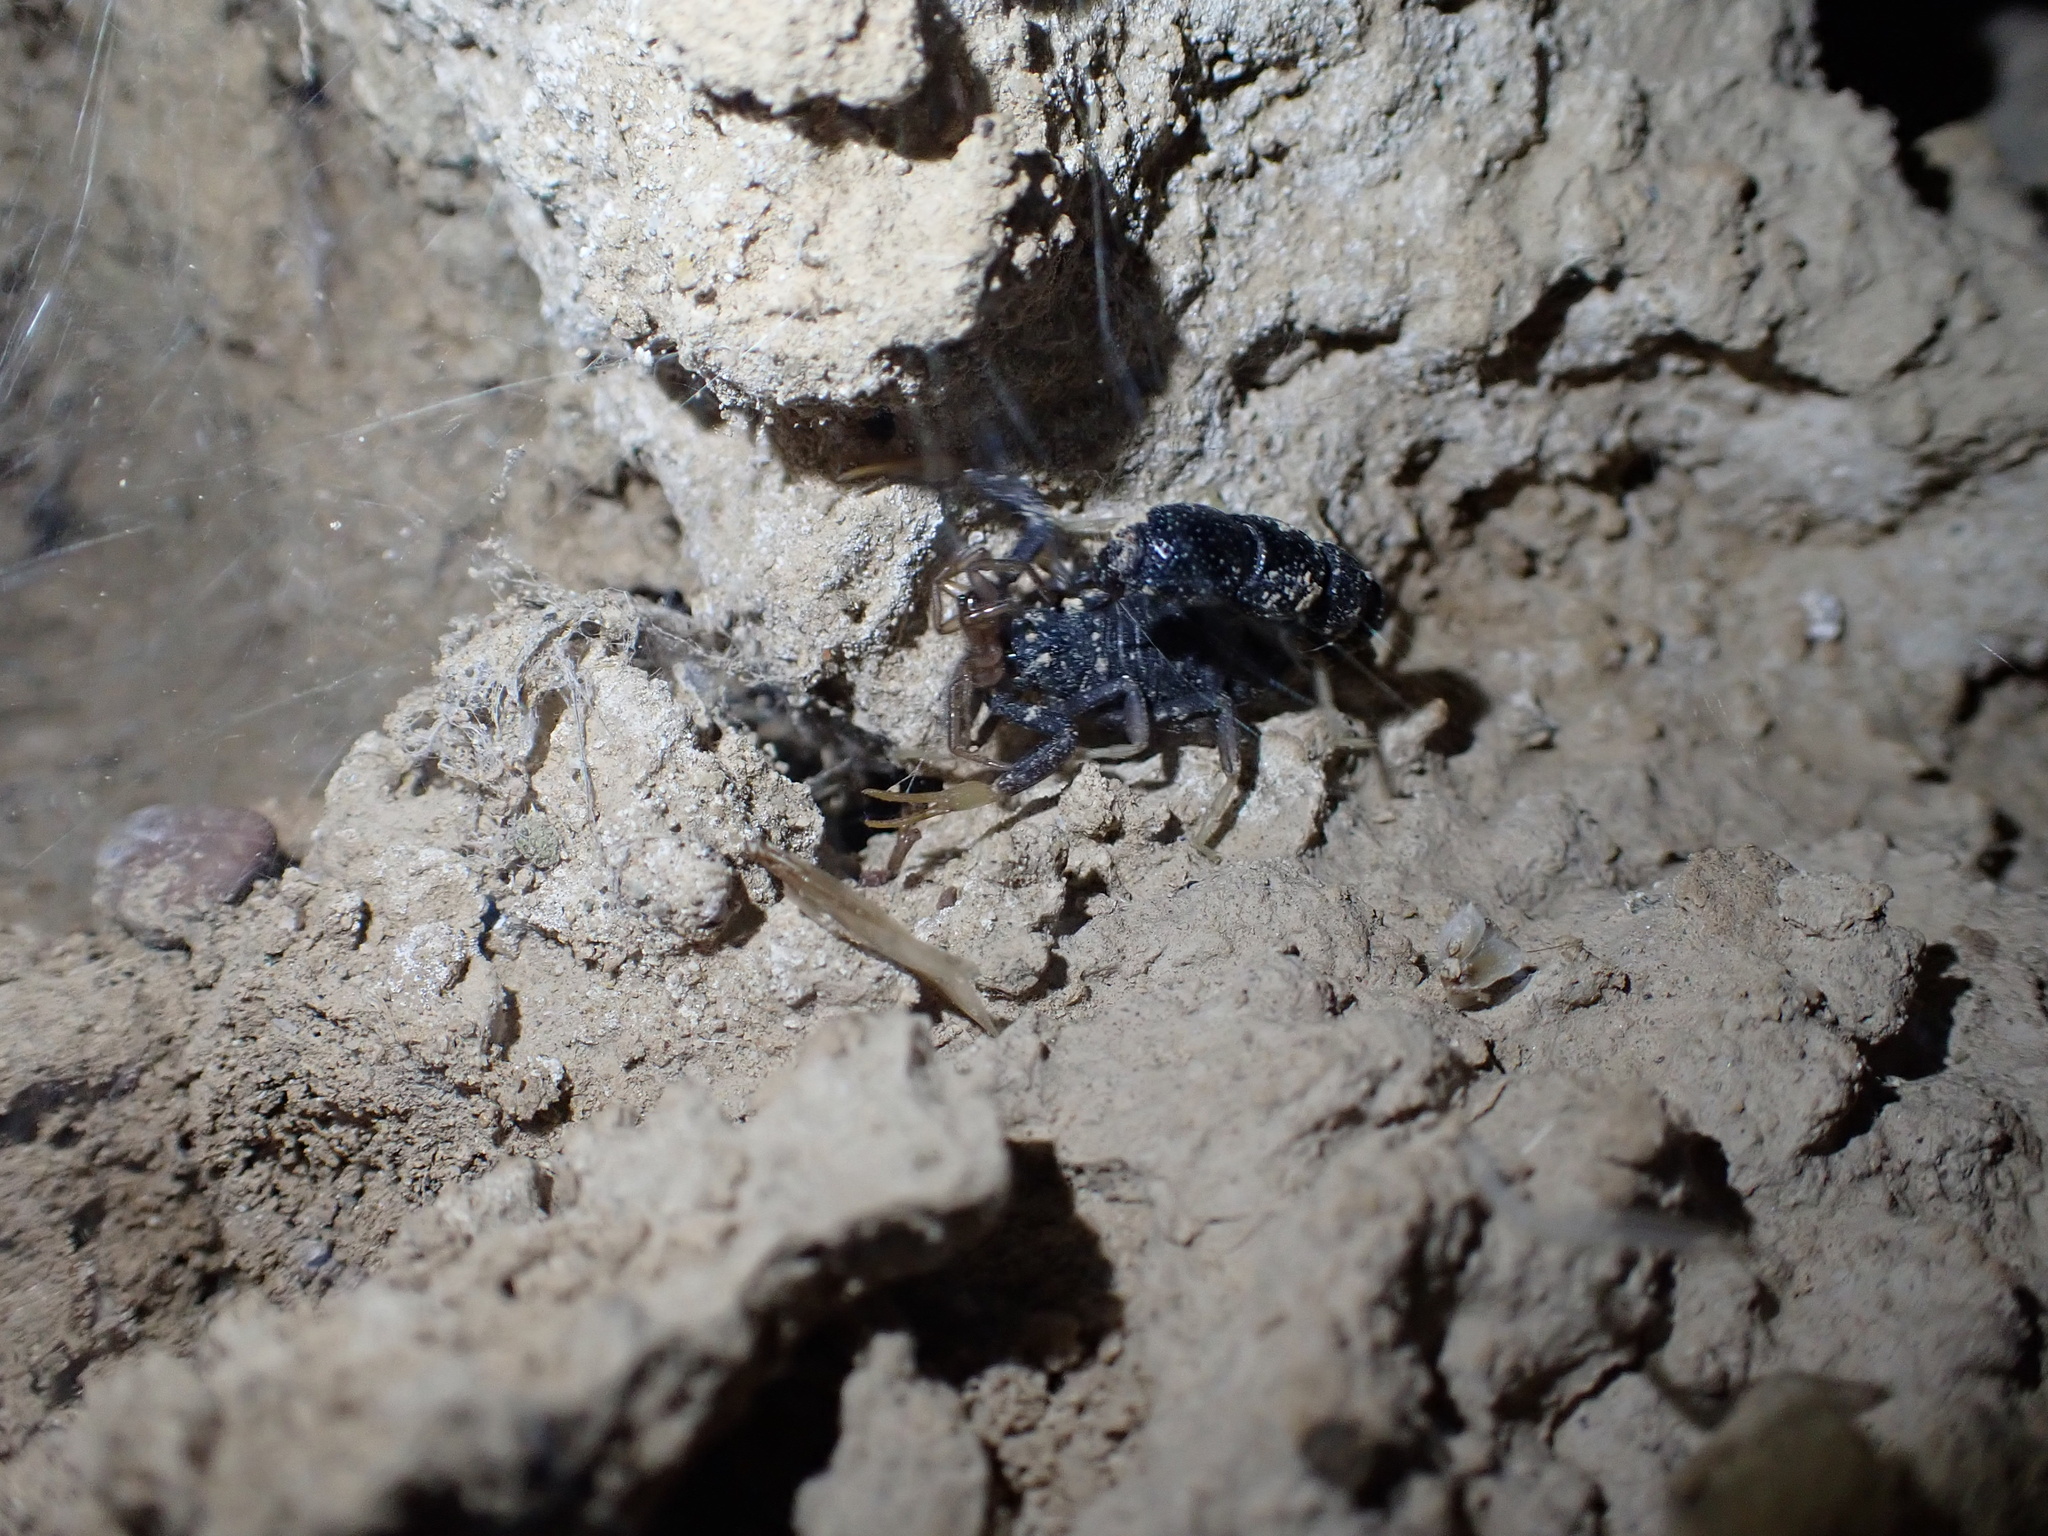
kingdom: Animalia
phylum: Arthropoda
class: Arachnida
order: Scorpiones
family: Buthidae
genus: Orthochirus
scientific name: Orthochirus mesopotamicus
